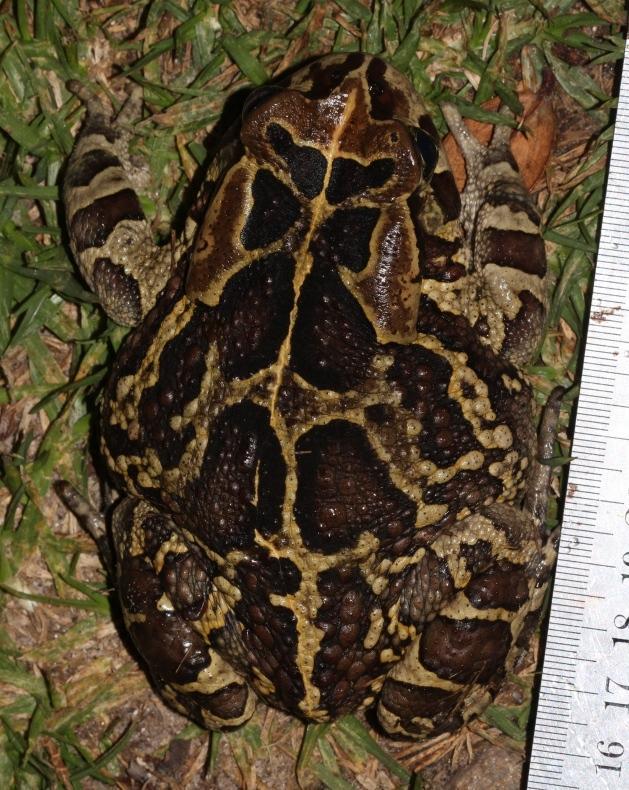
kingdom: Animalia
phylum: Chordata
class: Amphibia
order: Anura
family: Bufonidae
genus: Sclerophrys
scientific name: Sclerophrys pantherina
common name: Panther toad
